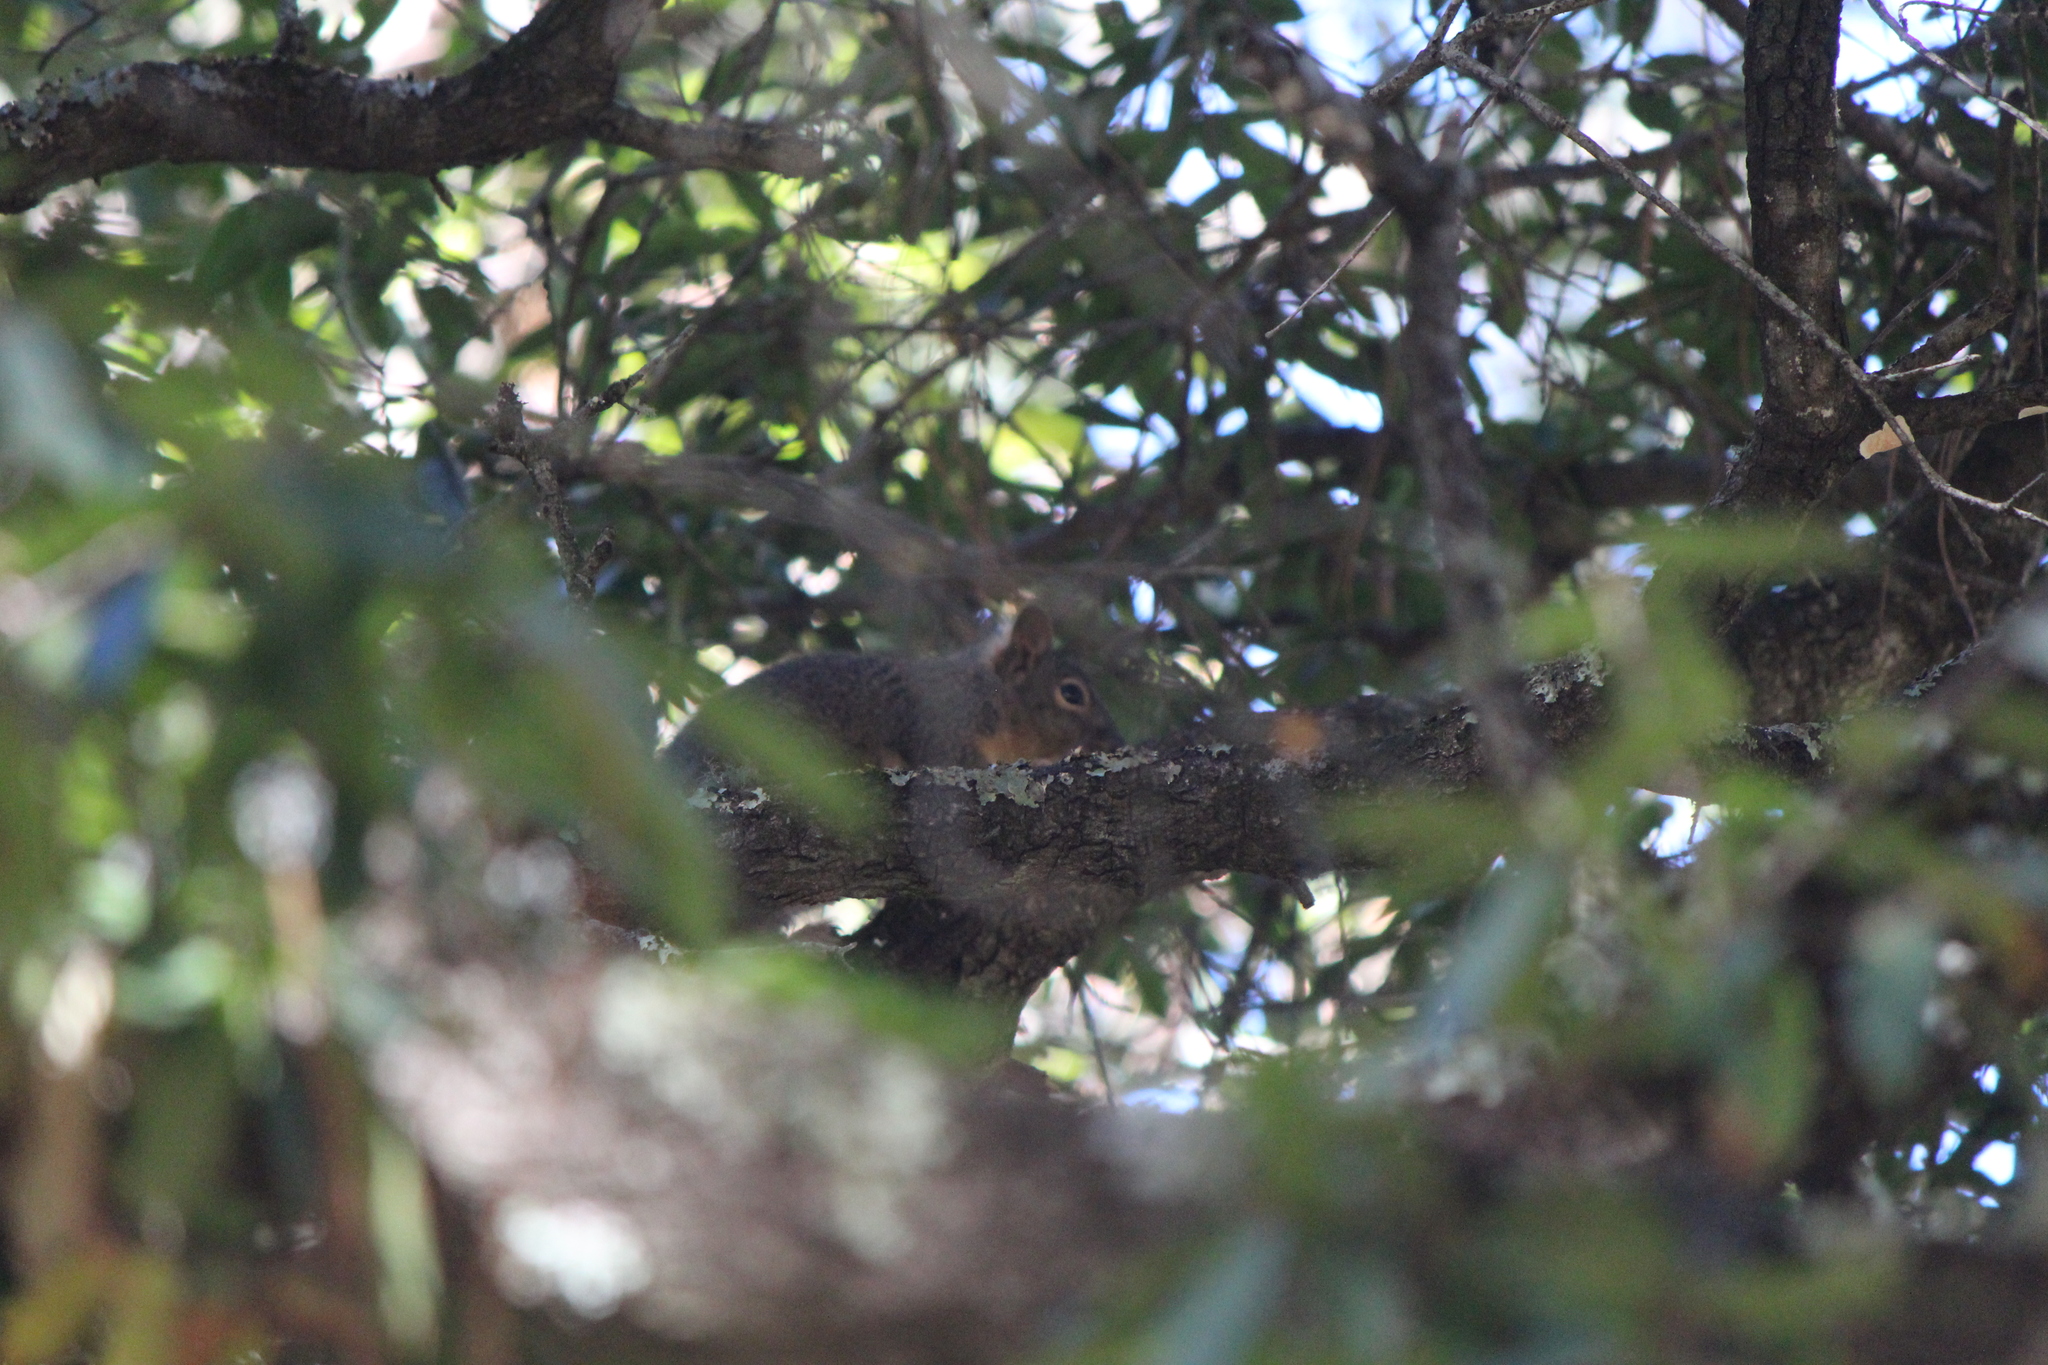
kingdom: Animalia
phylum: Chordata
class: Mammalia
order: Rodentia
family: Sciuridae
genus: Sciurus
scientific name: Sciurus oculatus
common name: Peters's squirrel
